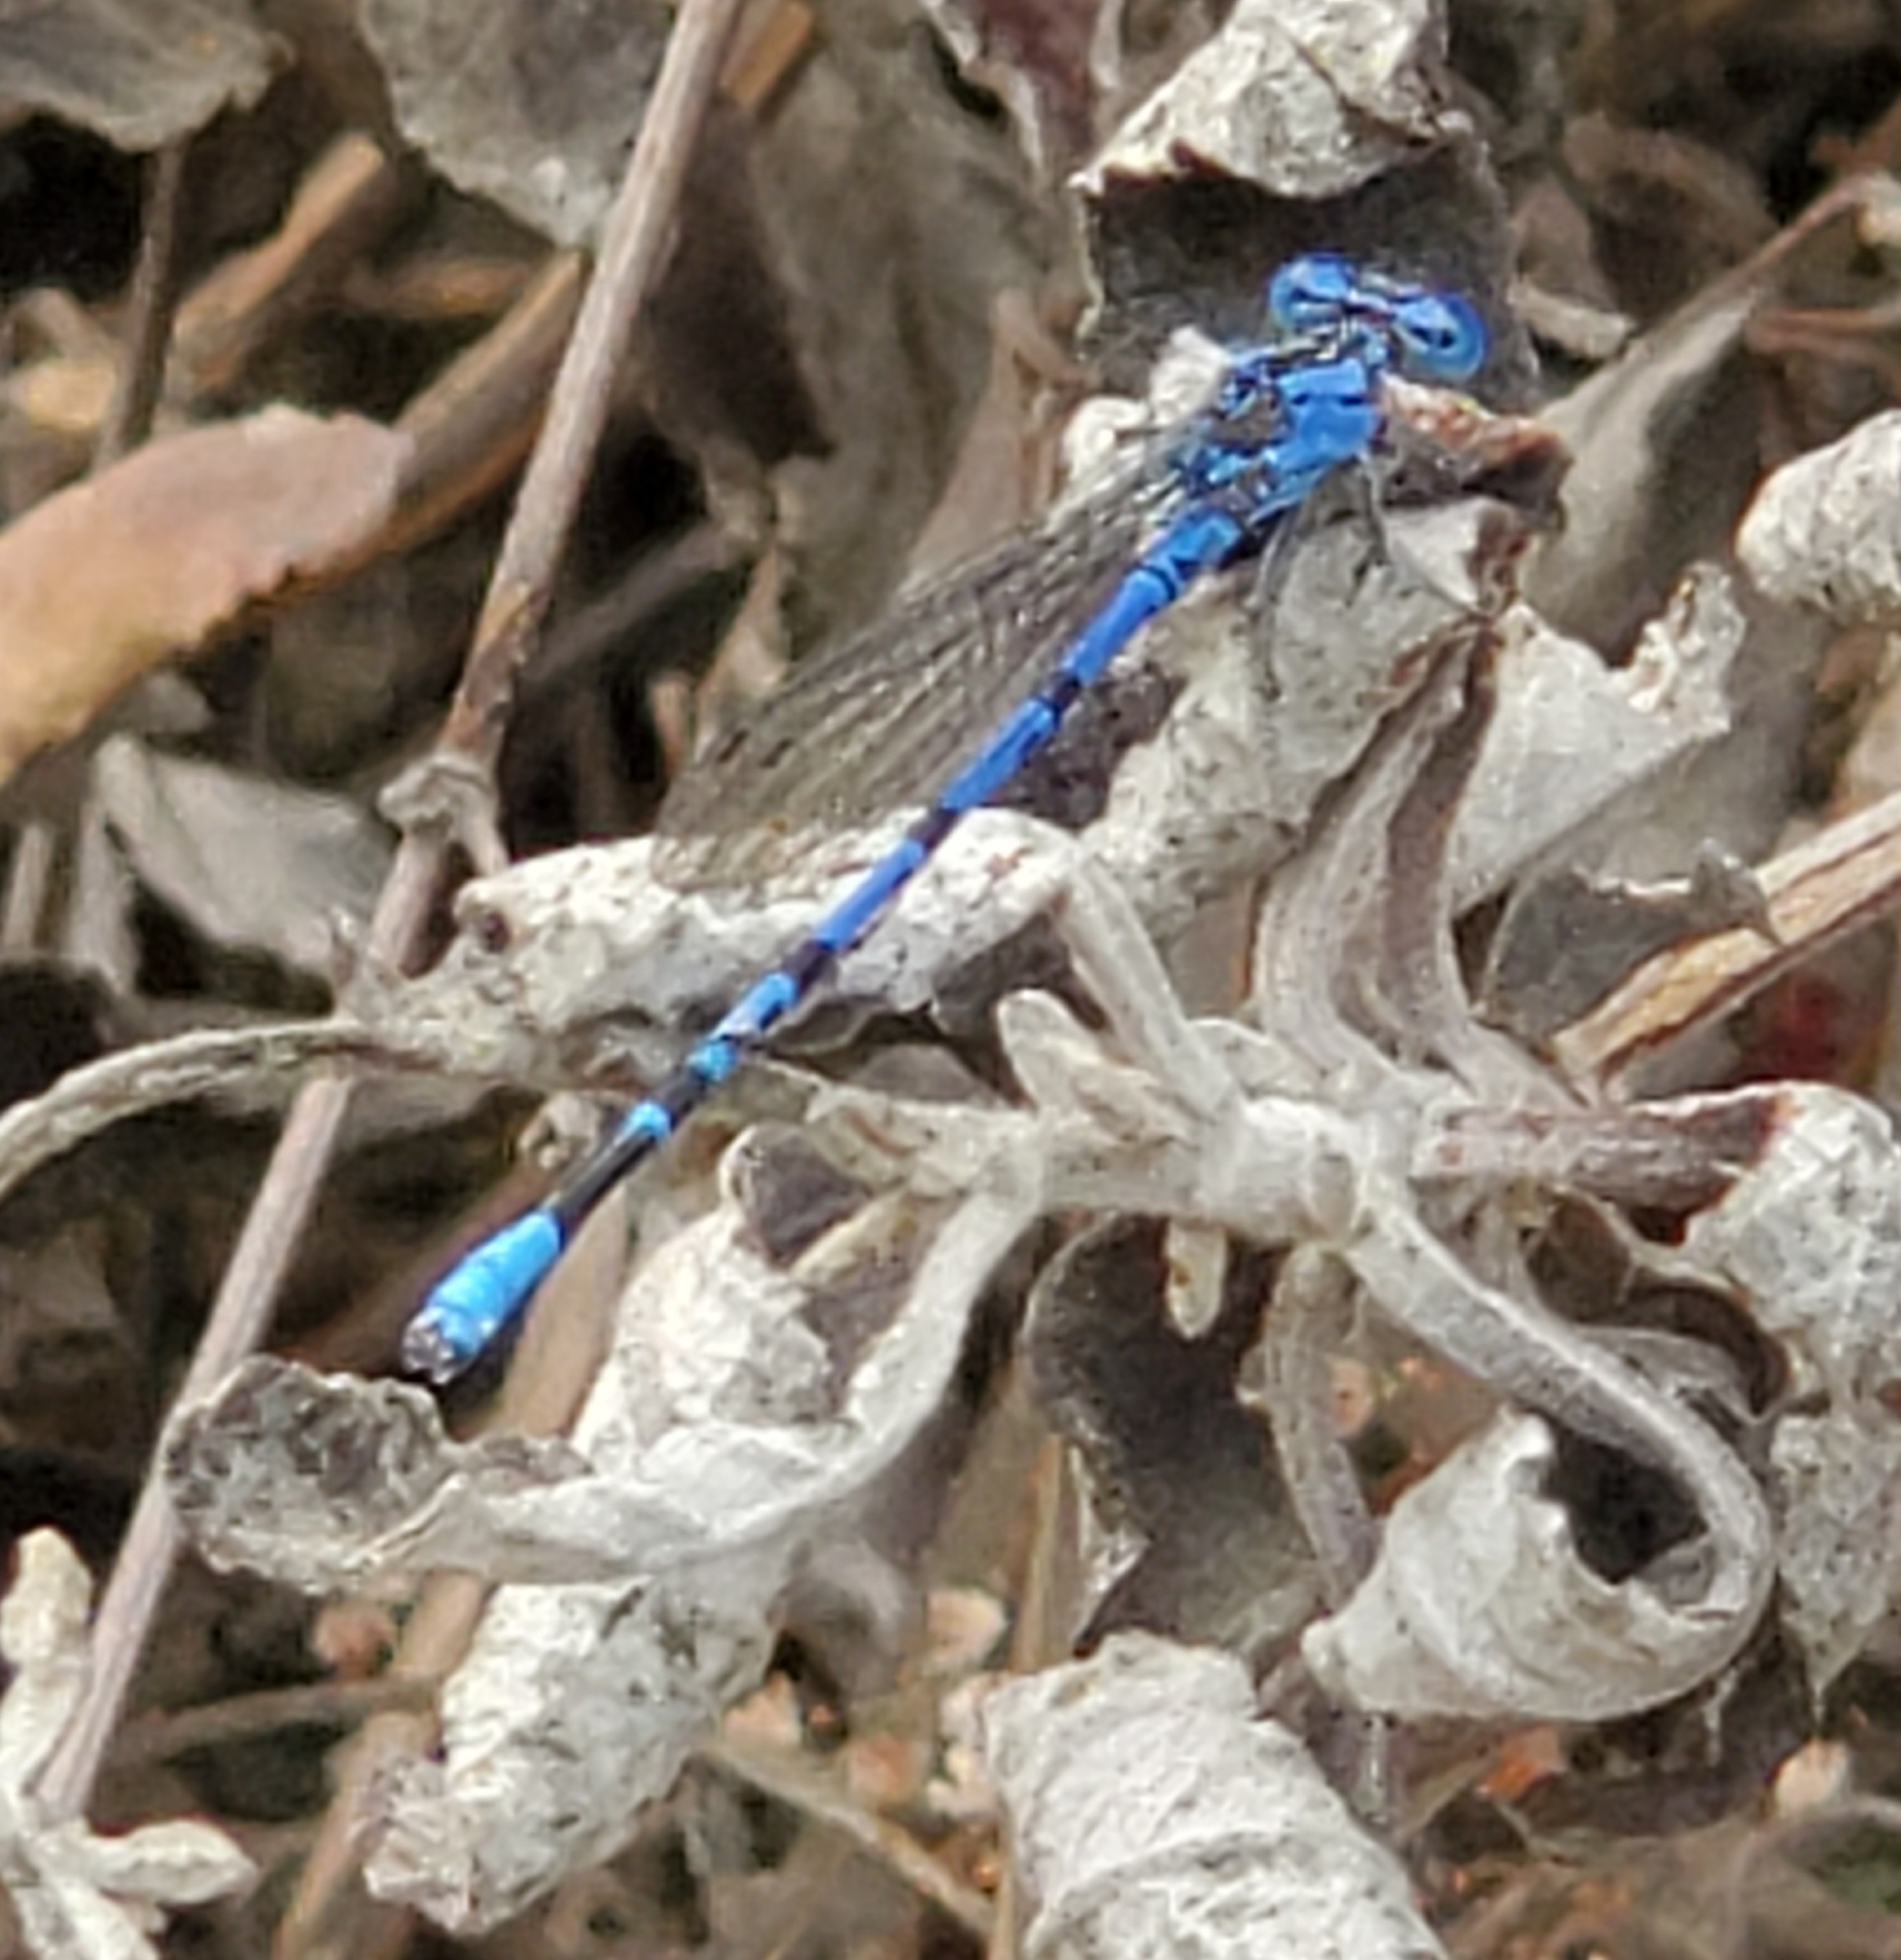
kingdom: Animalia
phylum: Arthropoda
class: Insecta
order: Odonata
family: Coenagrionidae
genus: Argia
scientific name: Argia vivida
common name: Vivid dancer
